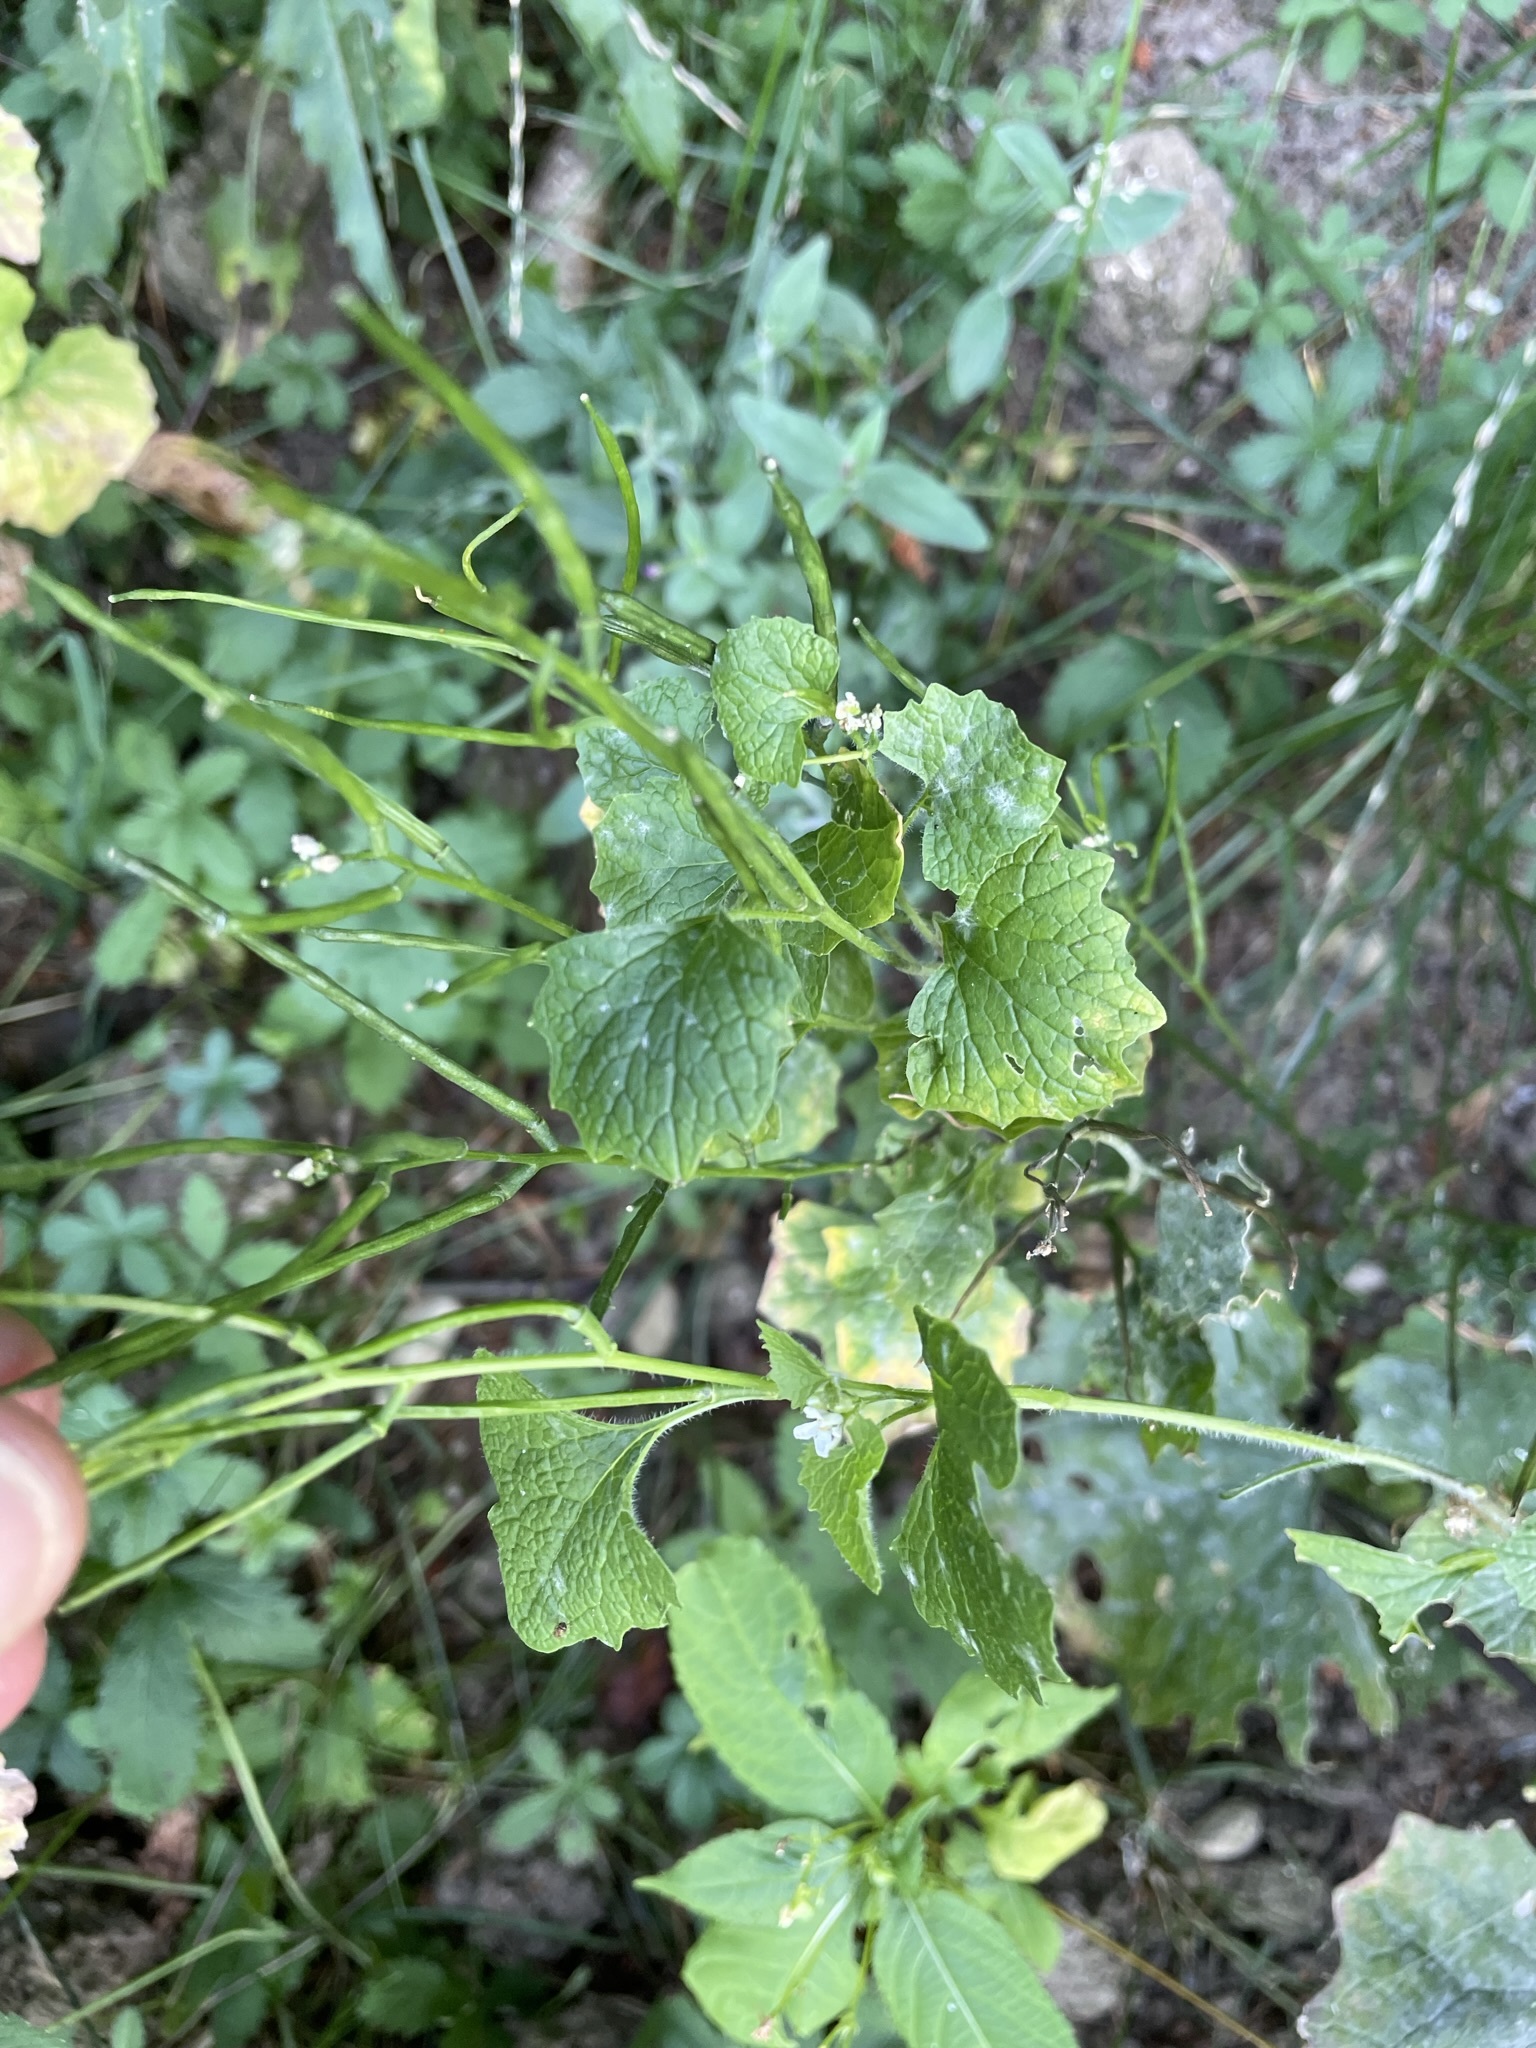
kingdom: Plantae
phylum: Tracheophyta
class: Magnoliopsida
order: Brassicales
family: Brassicaceae
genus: Alliaria
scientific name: Alliaria petiolata
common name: Garlic mustard
